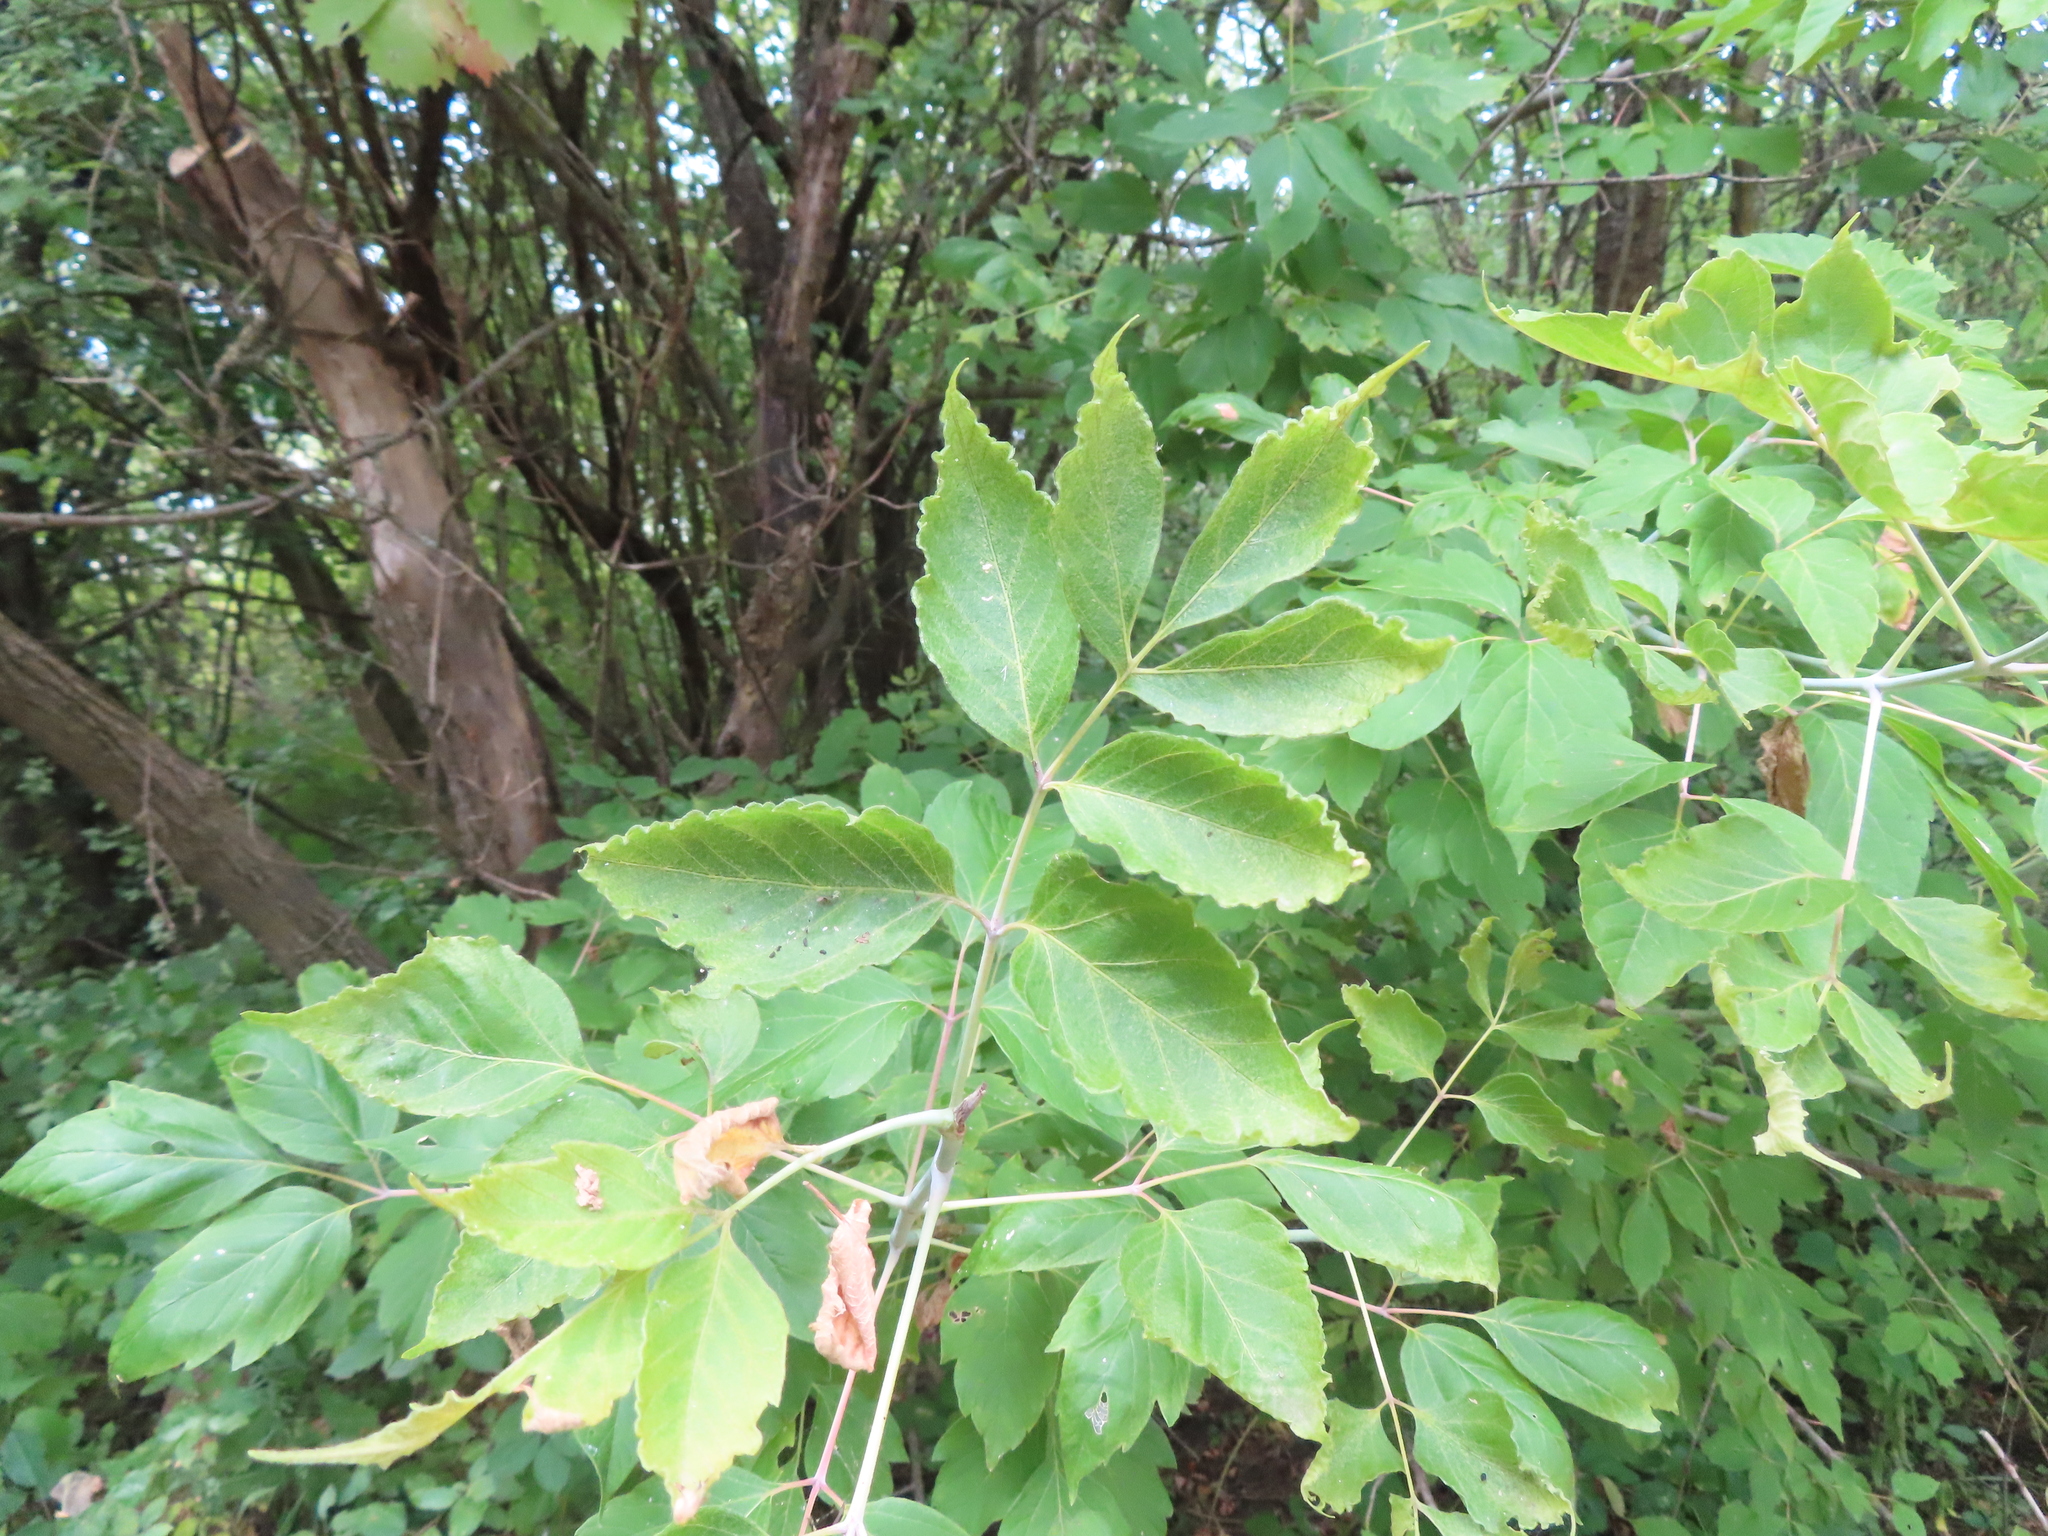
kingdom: Plantae
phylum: Tracheophyta
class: Magnoliopsida
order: Sapindales
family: Sapindaceae
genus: Acer
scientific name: Acer negundo
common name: Ashleaf maple
